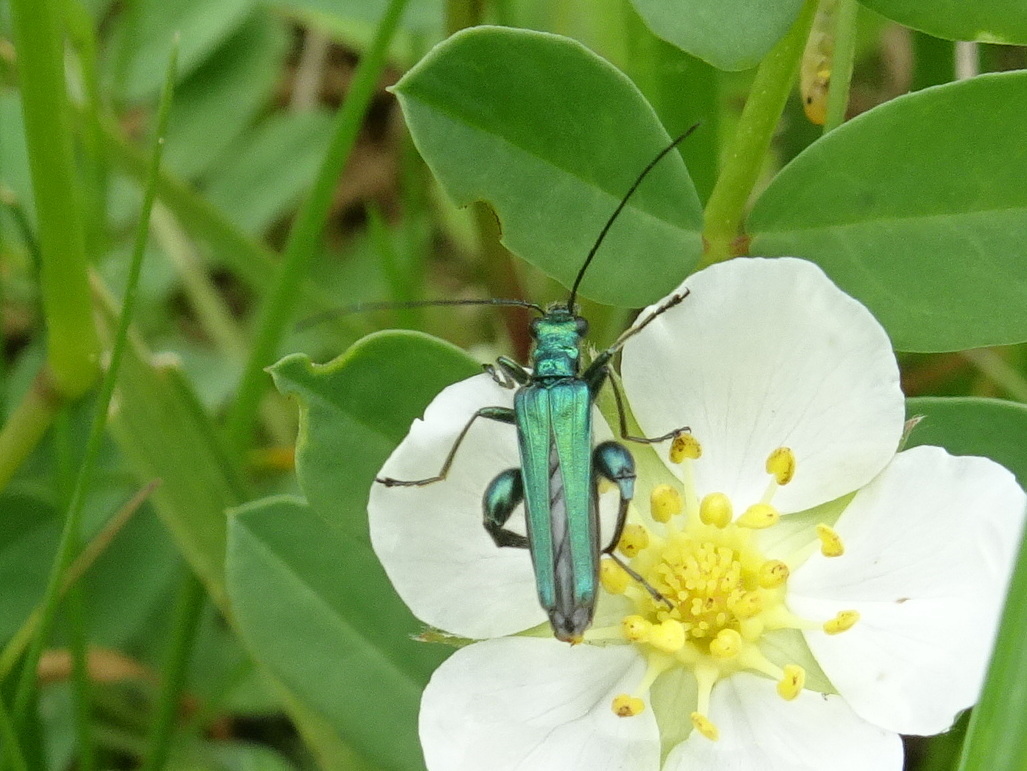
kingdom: Animalia
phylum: Arthropoda
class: Insecta
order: Coleoptera
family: Oedemeridae
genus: Oedemera
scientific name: Oedemera nobilis
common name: Swollen-thighed beetle
